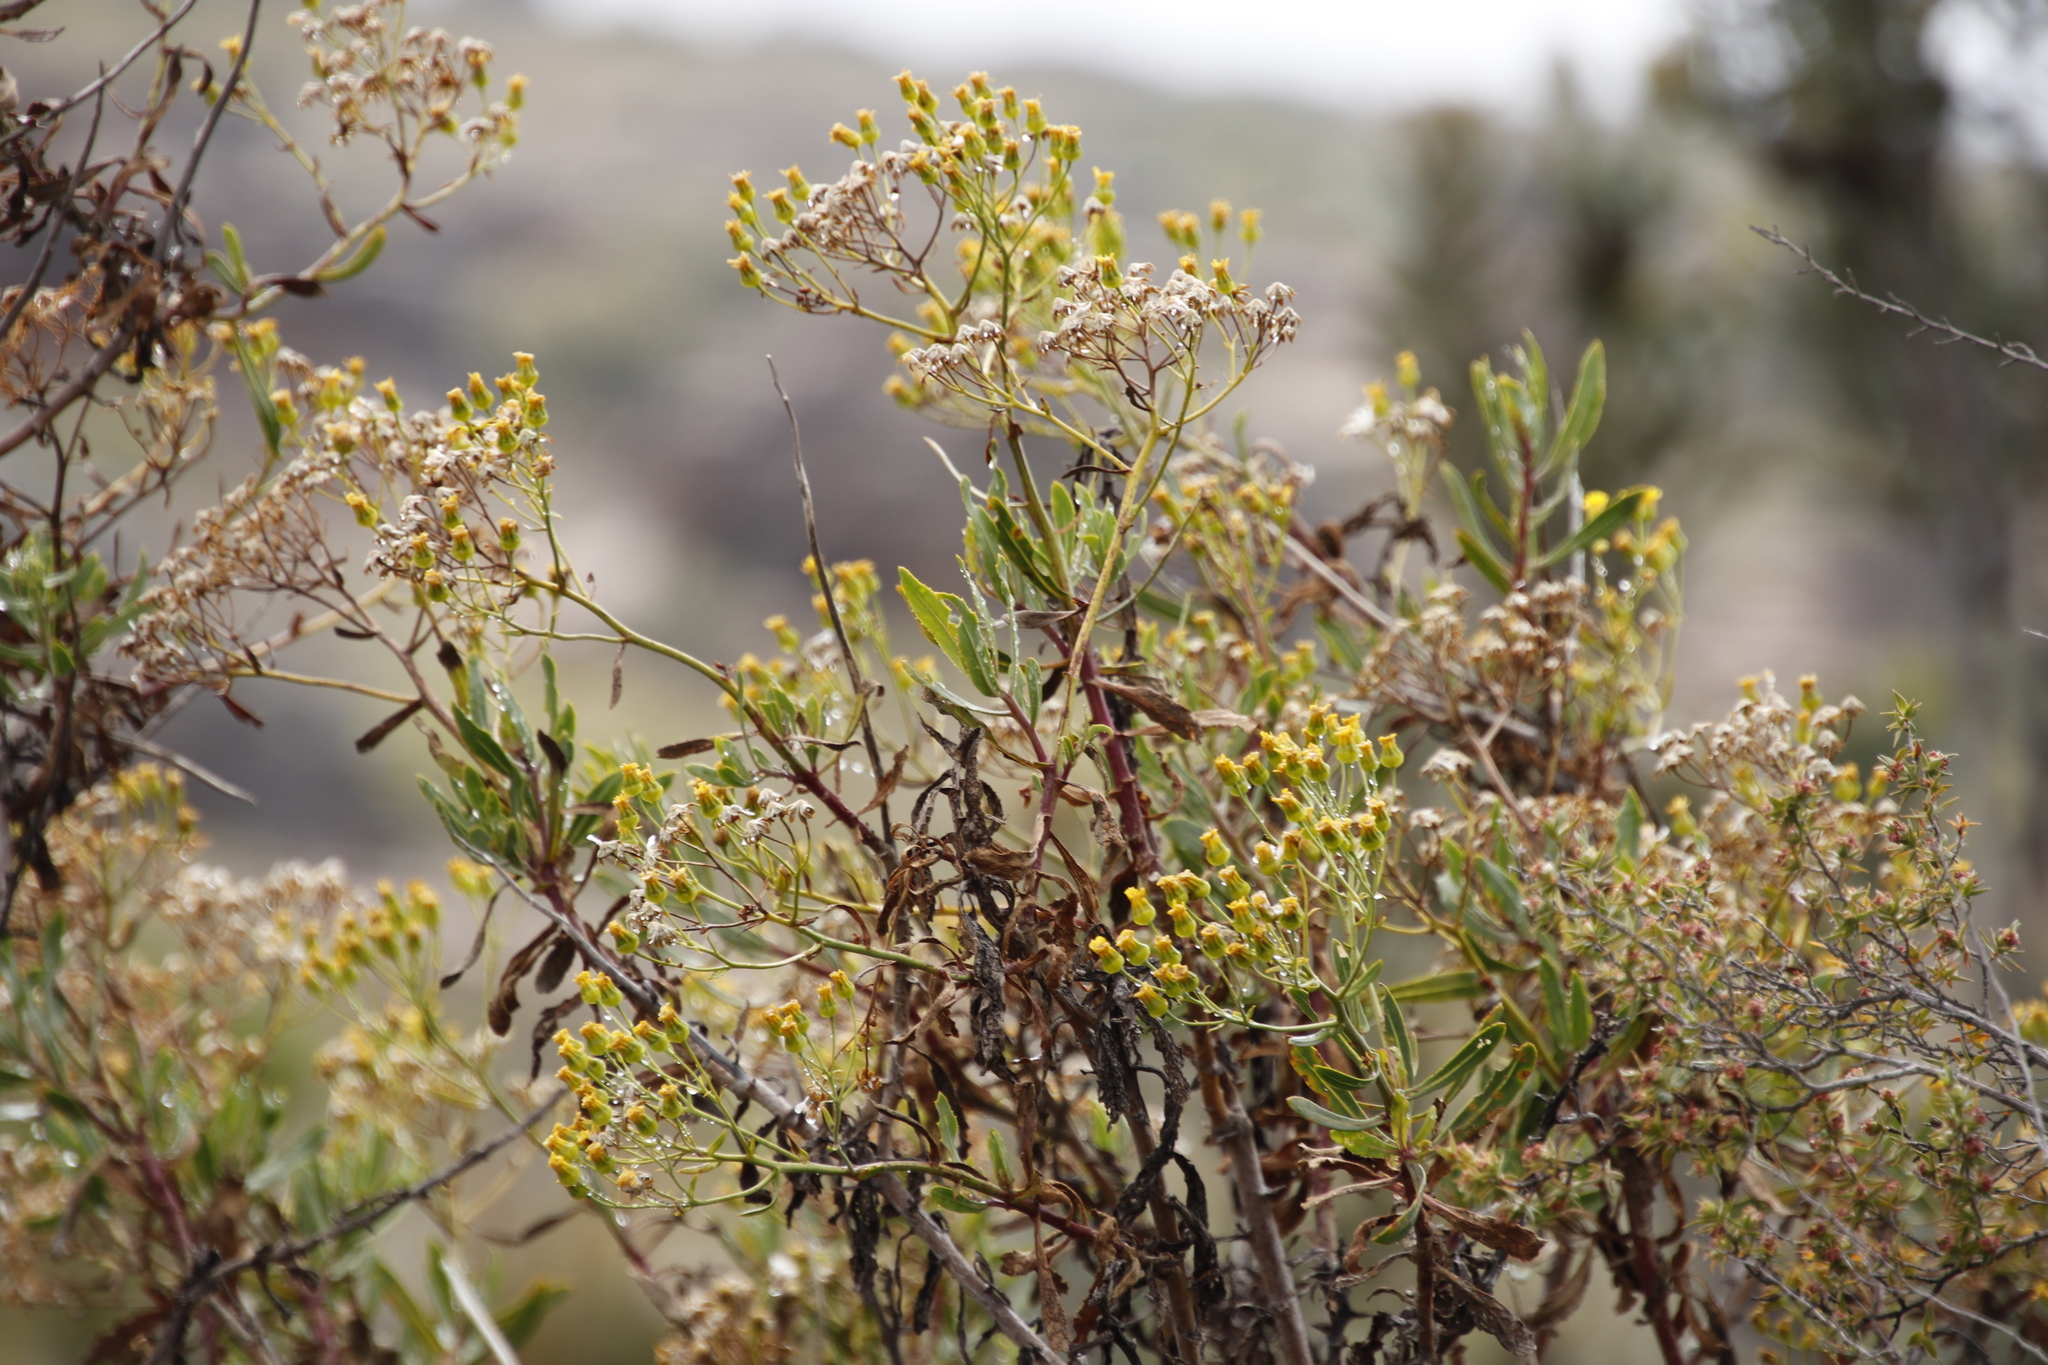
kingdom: Plantae
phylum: Tracheophyta
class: Magnoliopsida
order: Asterales
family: Asteraceae
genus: Othonna
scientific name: Othonna parviflora
